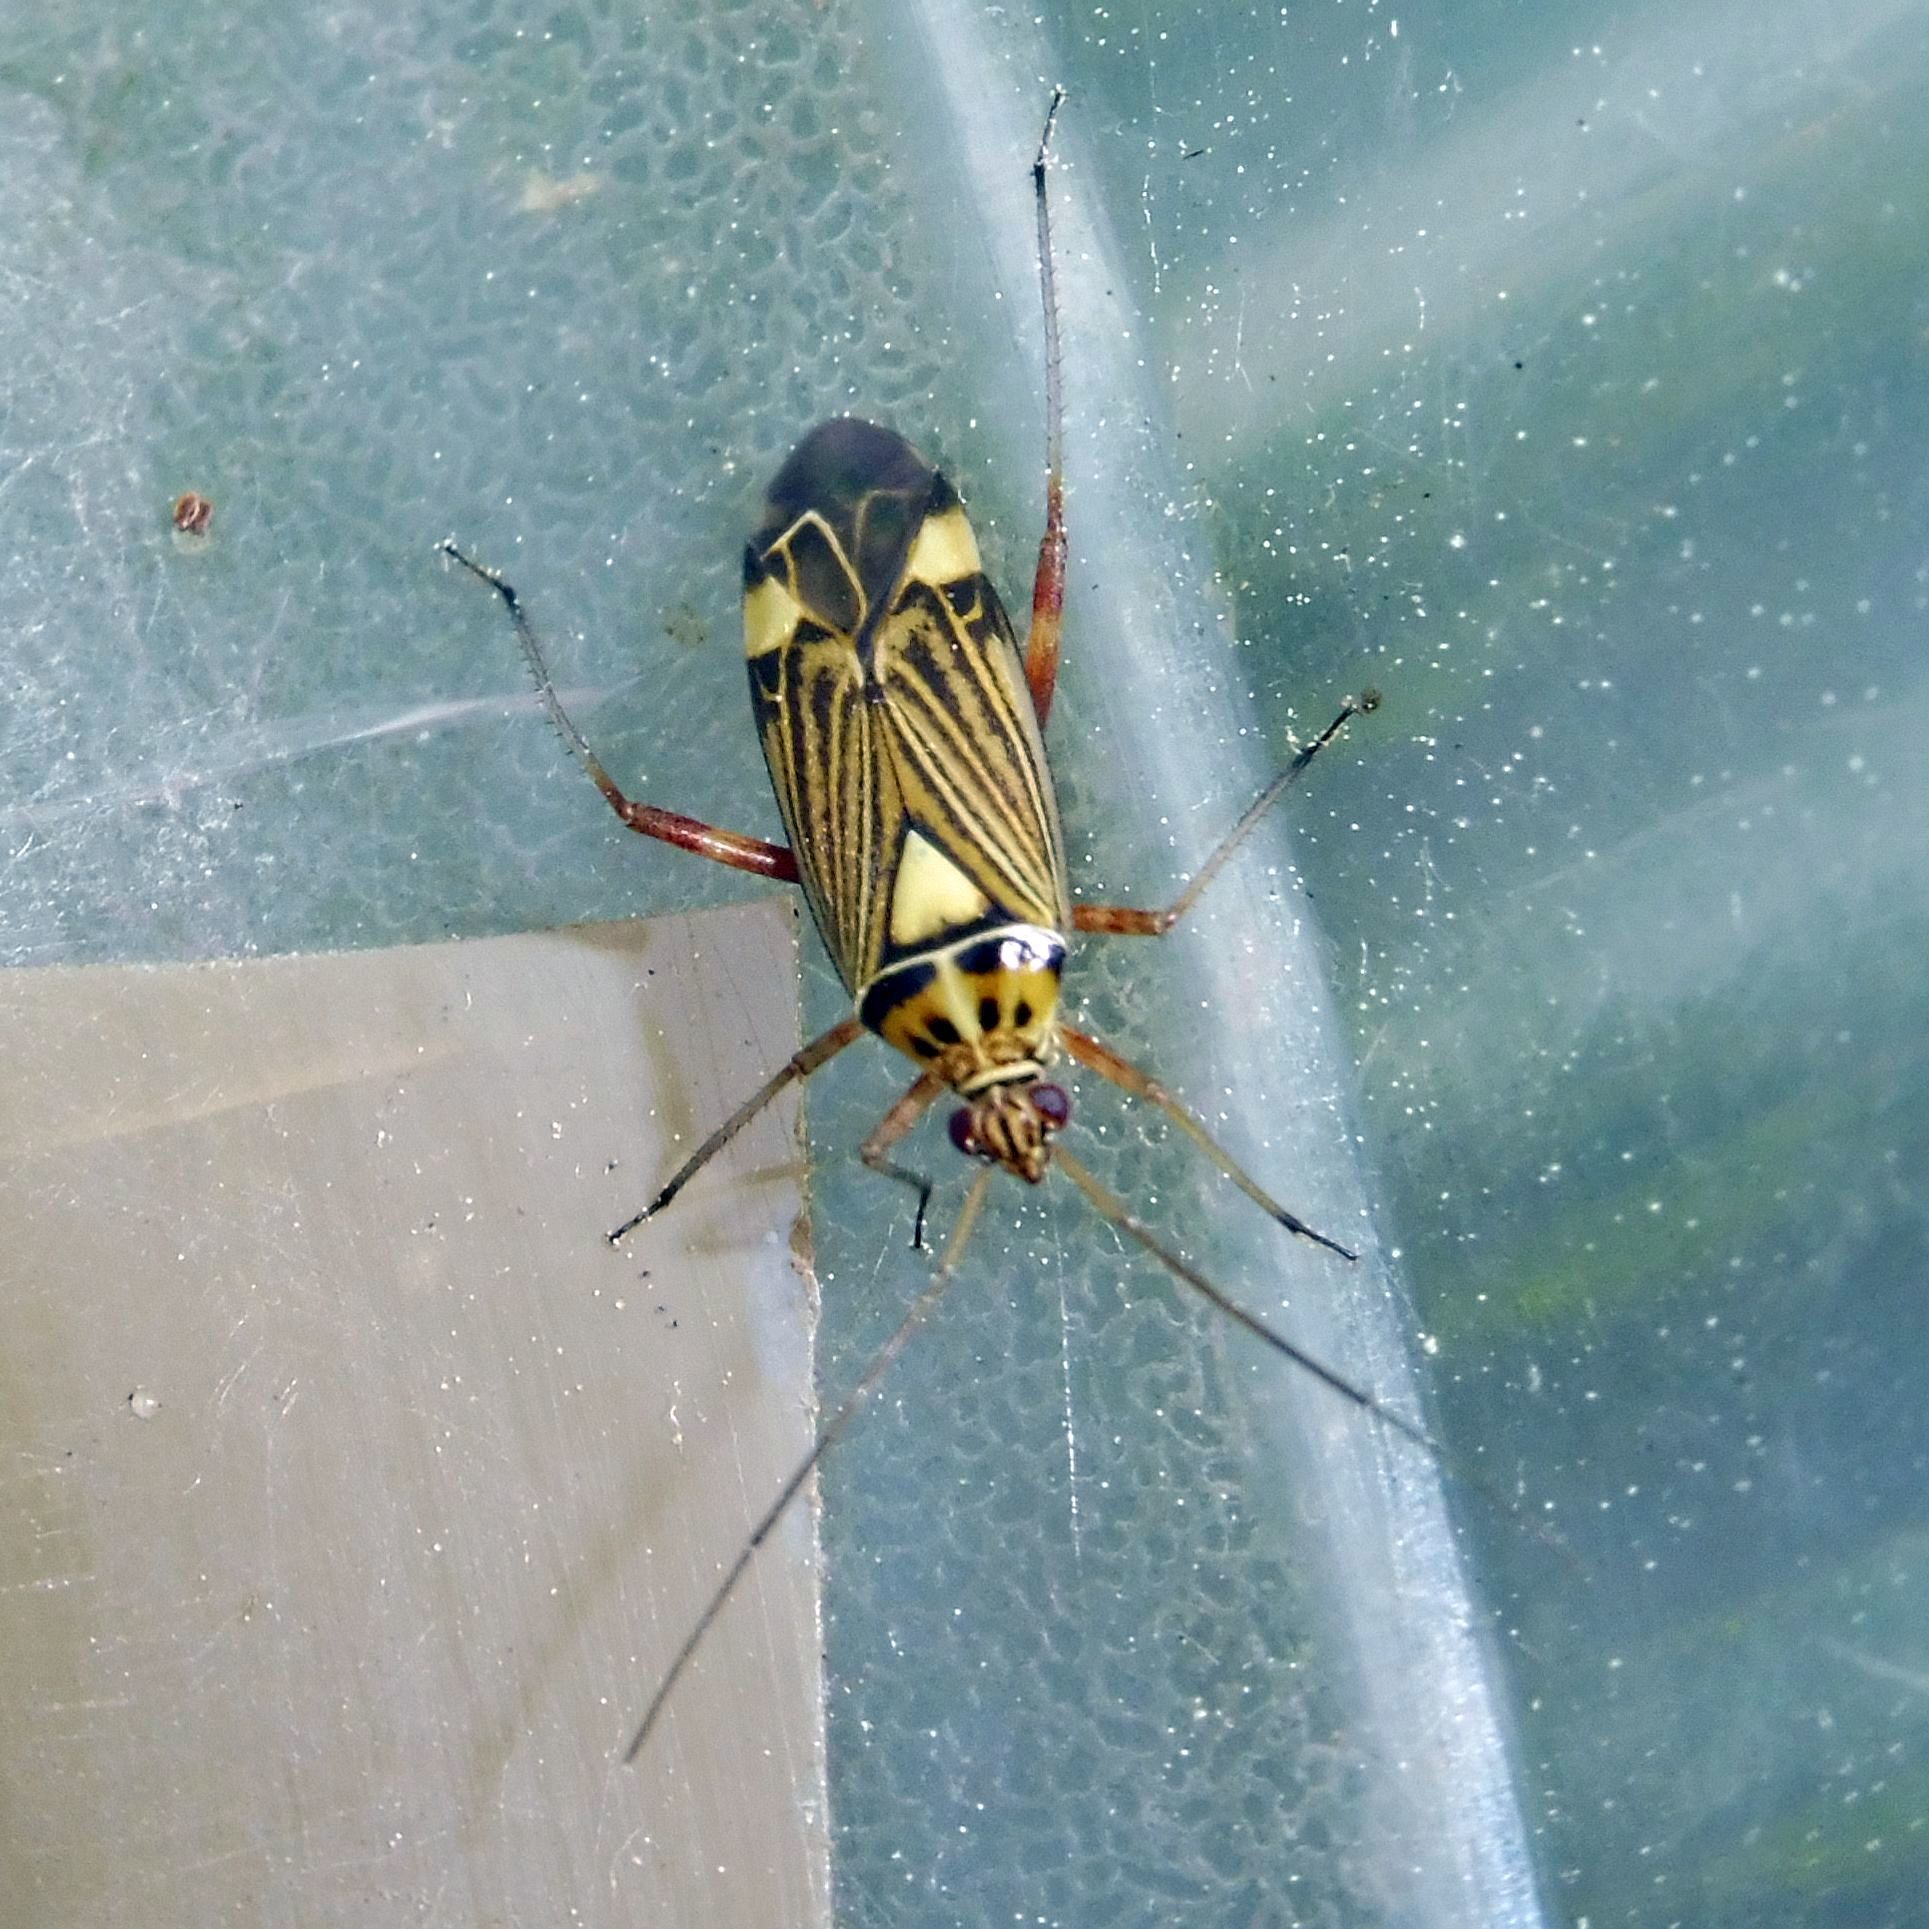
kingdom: Animalia
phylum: Arthropoda
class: Insecta
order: Hemiptera
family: Miridae
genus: Rhabdomiris
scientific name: Rhabdomiris striatellus
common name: Plant bug
